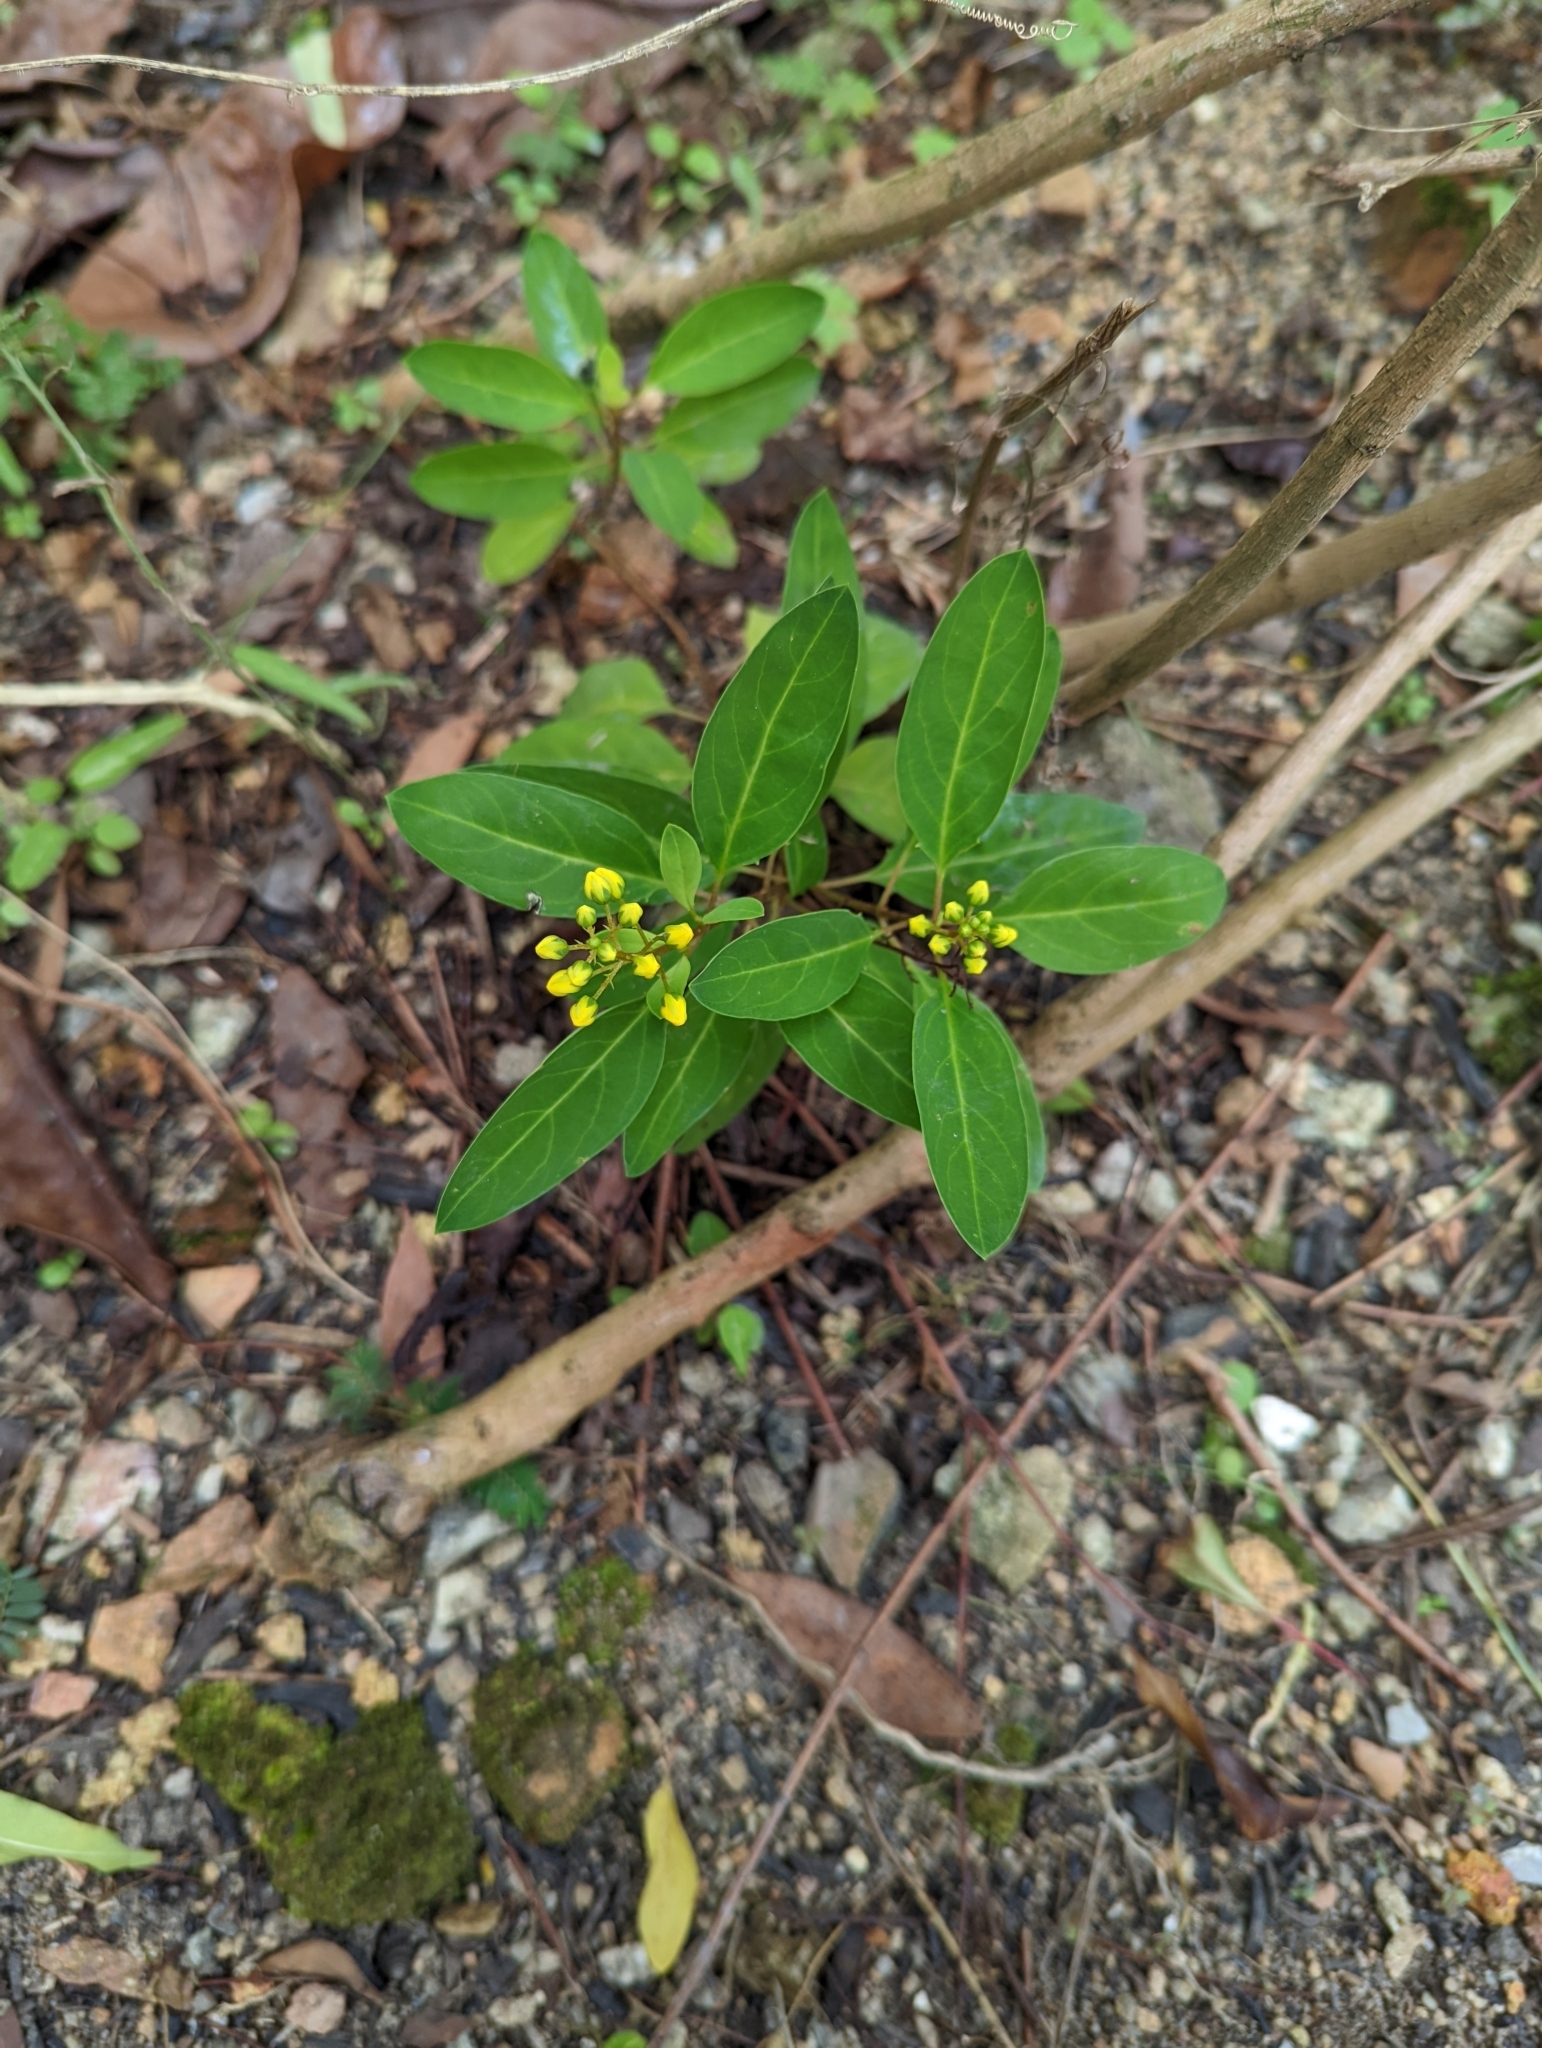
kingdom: Plantae
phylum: Tracheophyta
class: Magnoliopsida
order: Malpighiales
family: Malpighiaceae
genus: Galphimia
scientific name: Galphimia glauca
